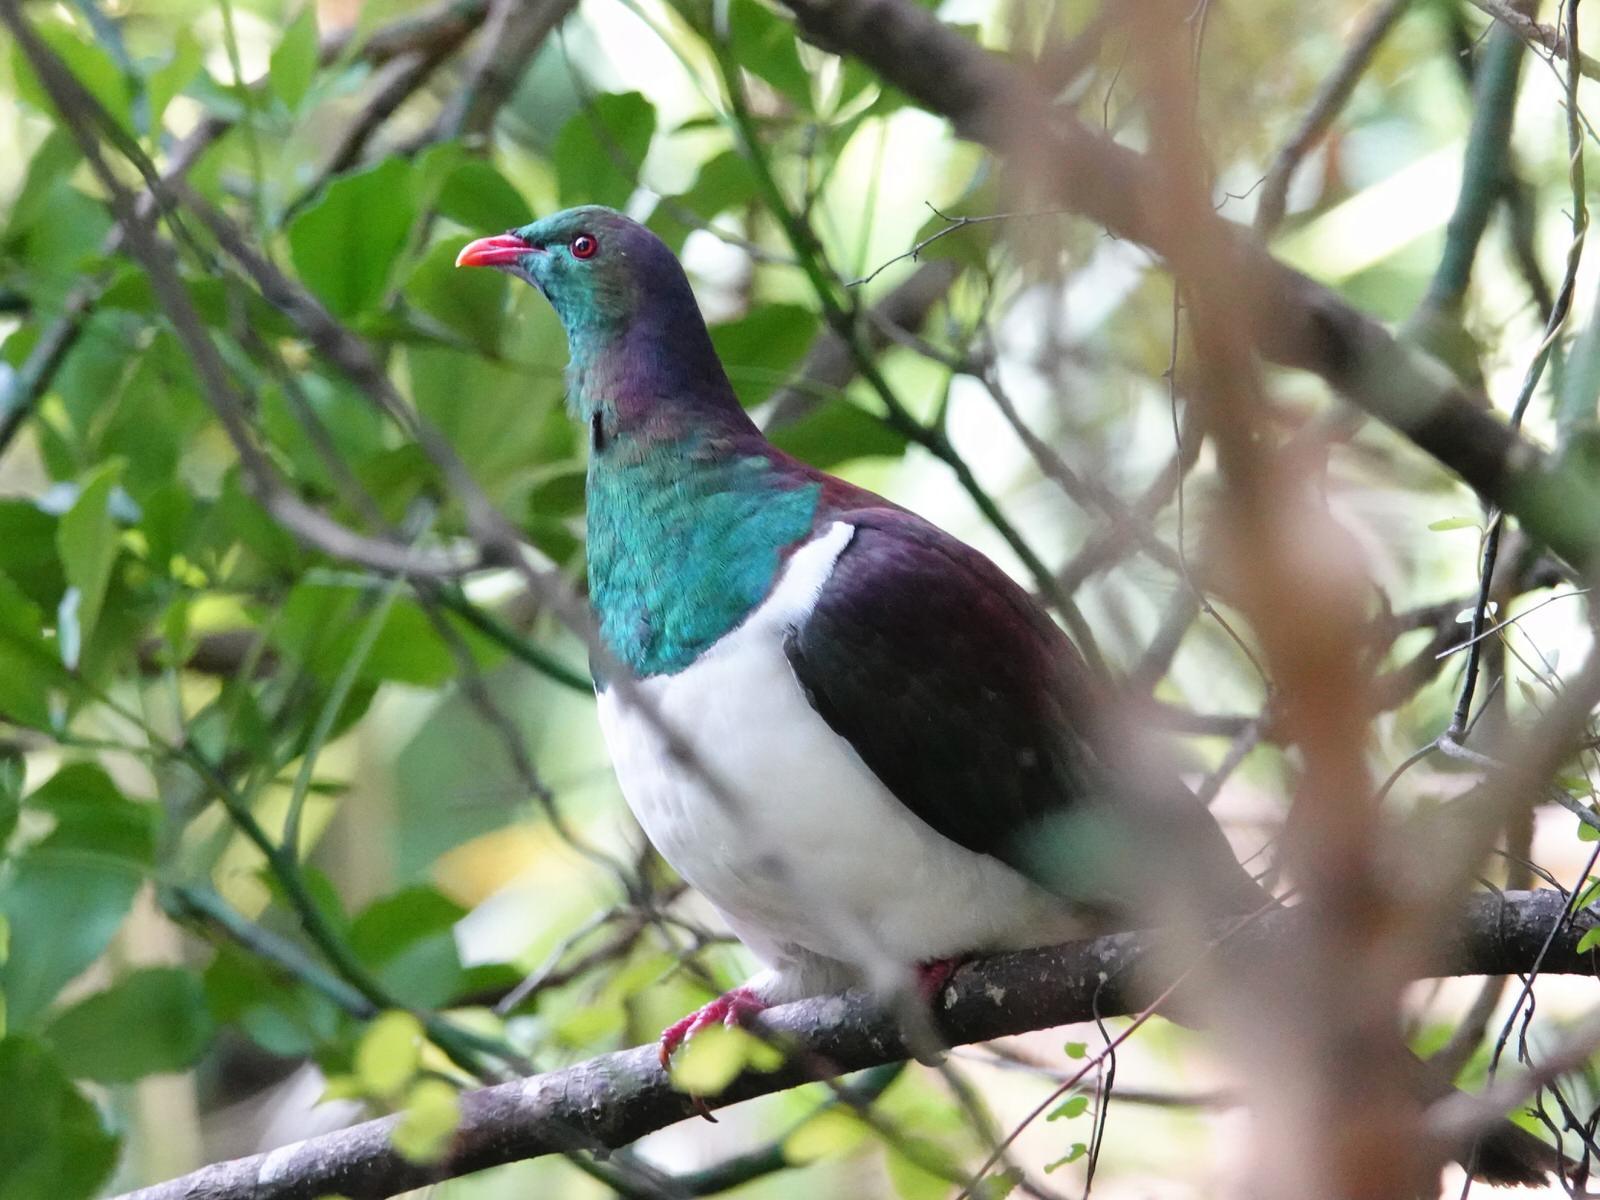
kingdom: Animalia
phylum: Chordata
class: Aves
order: Columbiformes
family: Columbidae
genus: Hemiphaga
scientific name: Hemiphaga novaeseelandiae
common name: New zealand pigeon
